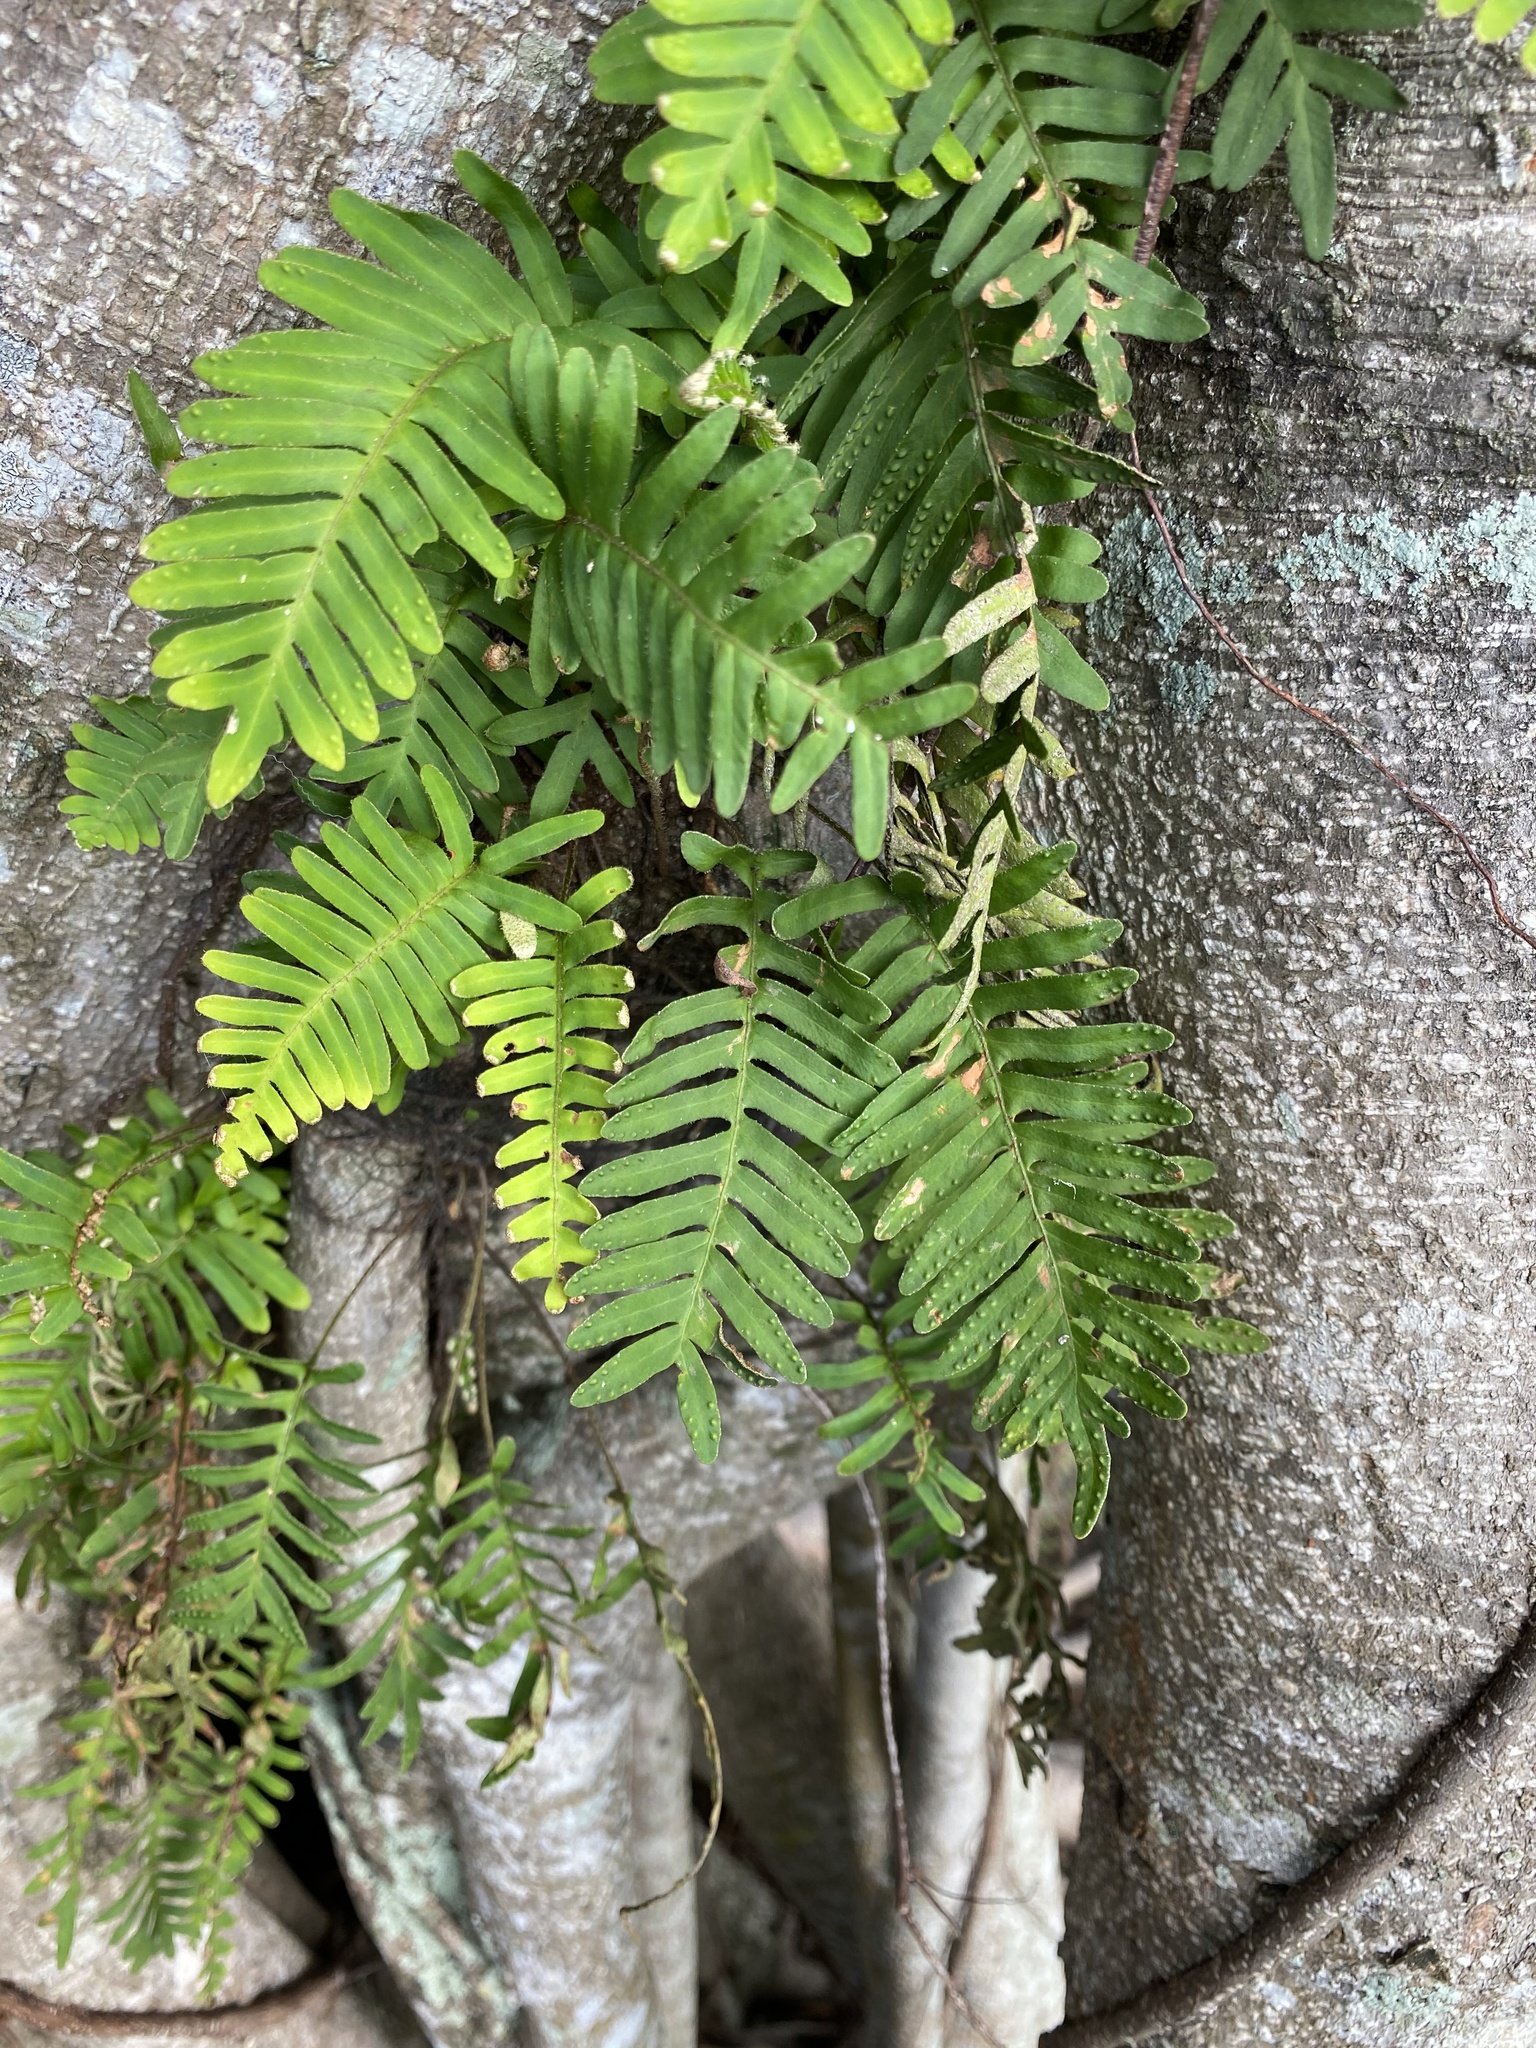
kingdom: Plantae
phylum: Tracheophyta
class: Polypodiopsida
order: Polypodiales
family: Polypodiaceae
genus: Pleopeltis
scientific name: Pleopeltis michauxiana
